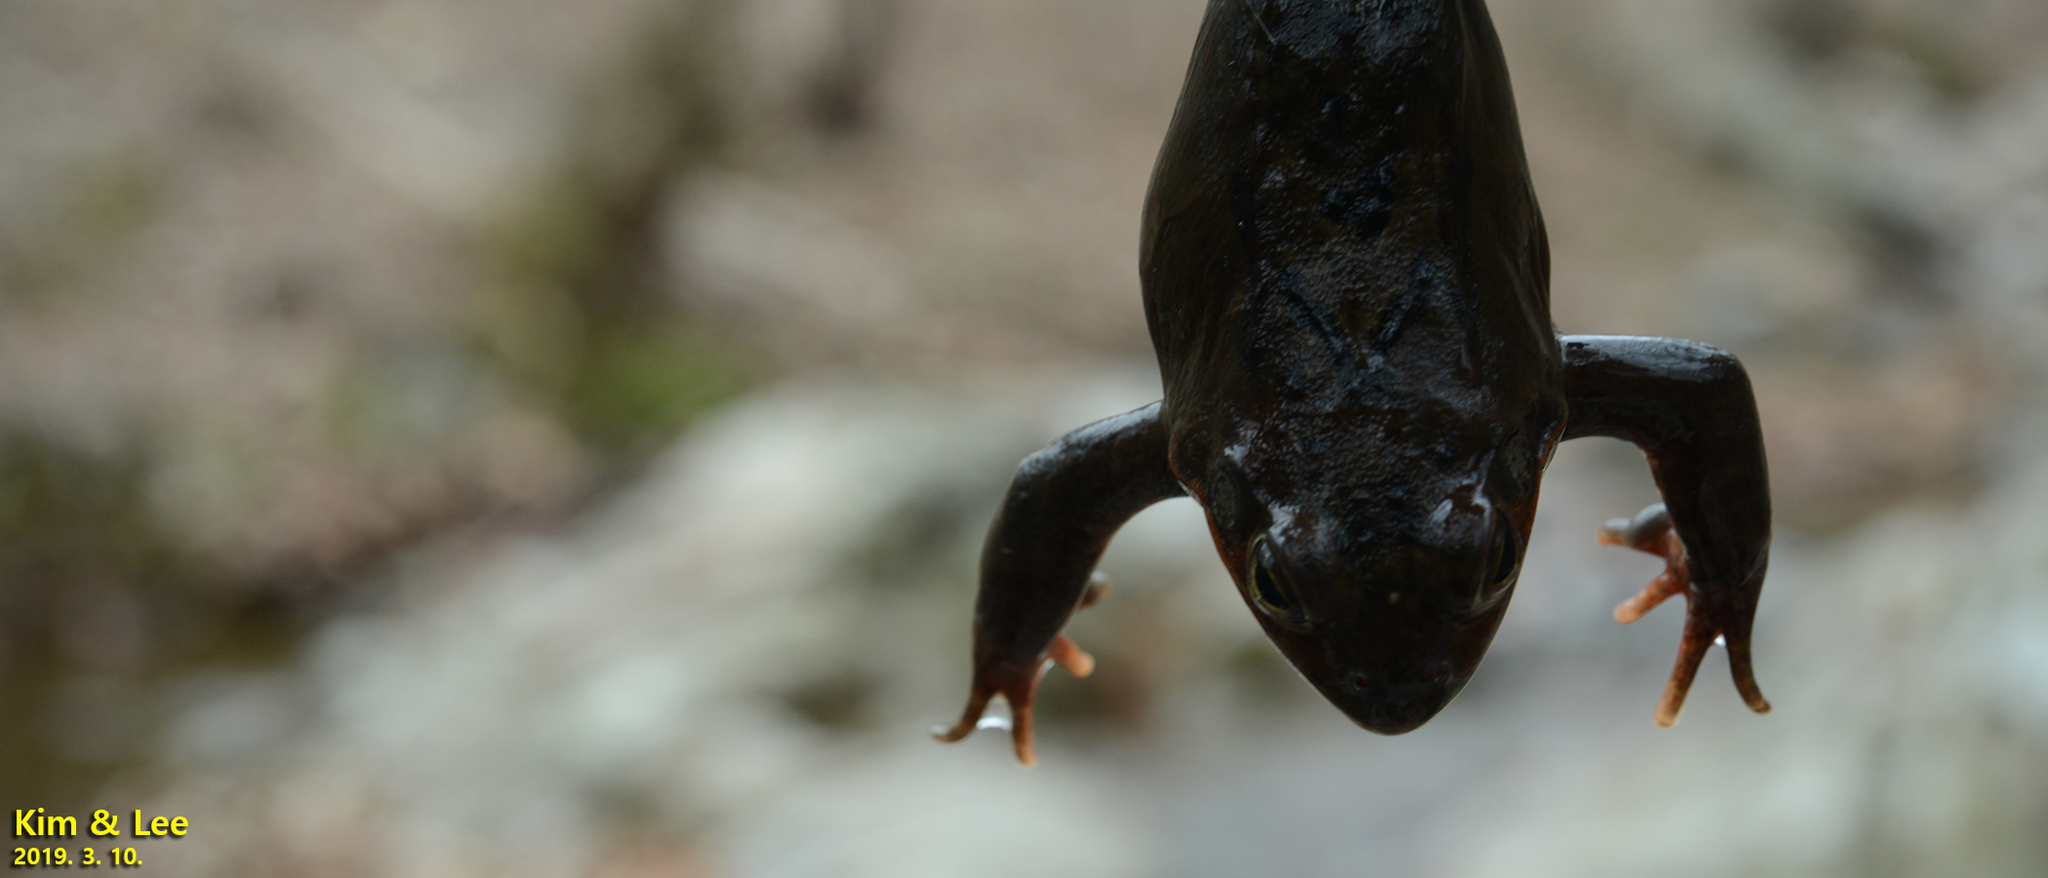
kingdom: Animalia
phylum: Chordata
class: Amphibia
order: Anura
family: Ranidae
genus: Rana
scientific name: Rana dybowskii
